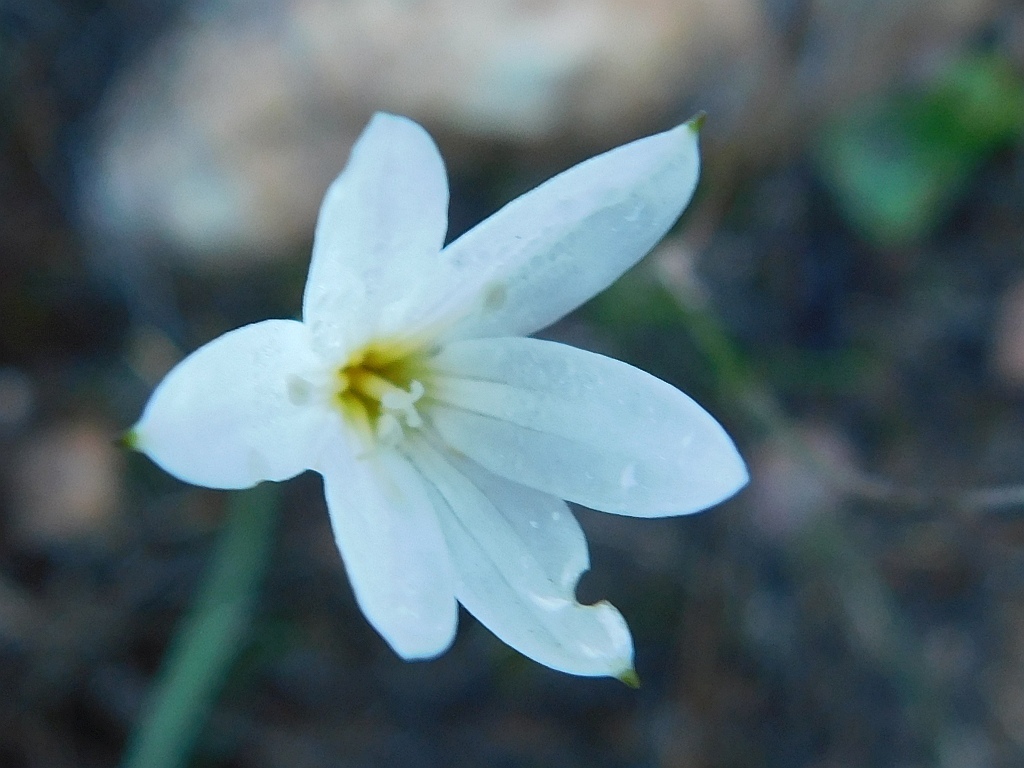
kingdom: Plantae
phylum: Tracheophyta
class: Liliopsida
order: Asparagales
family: Amaryllidaceae
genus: Strumaria
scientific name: Strumaria spiralis
